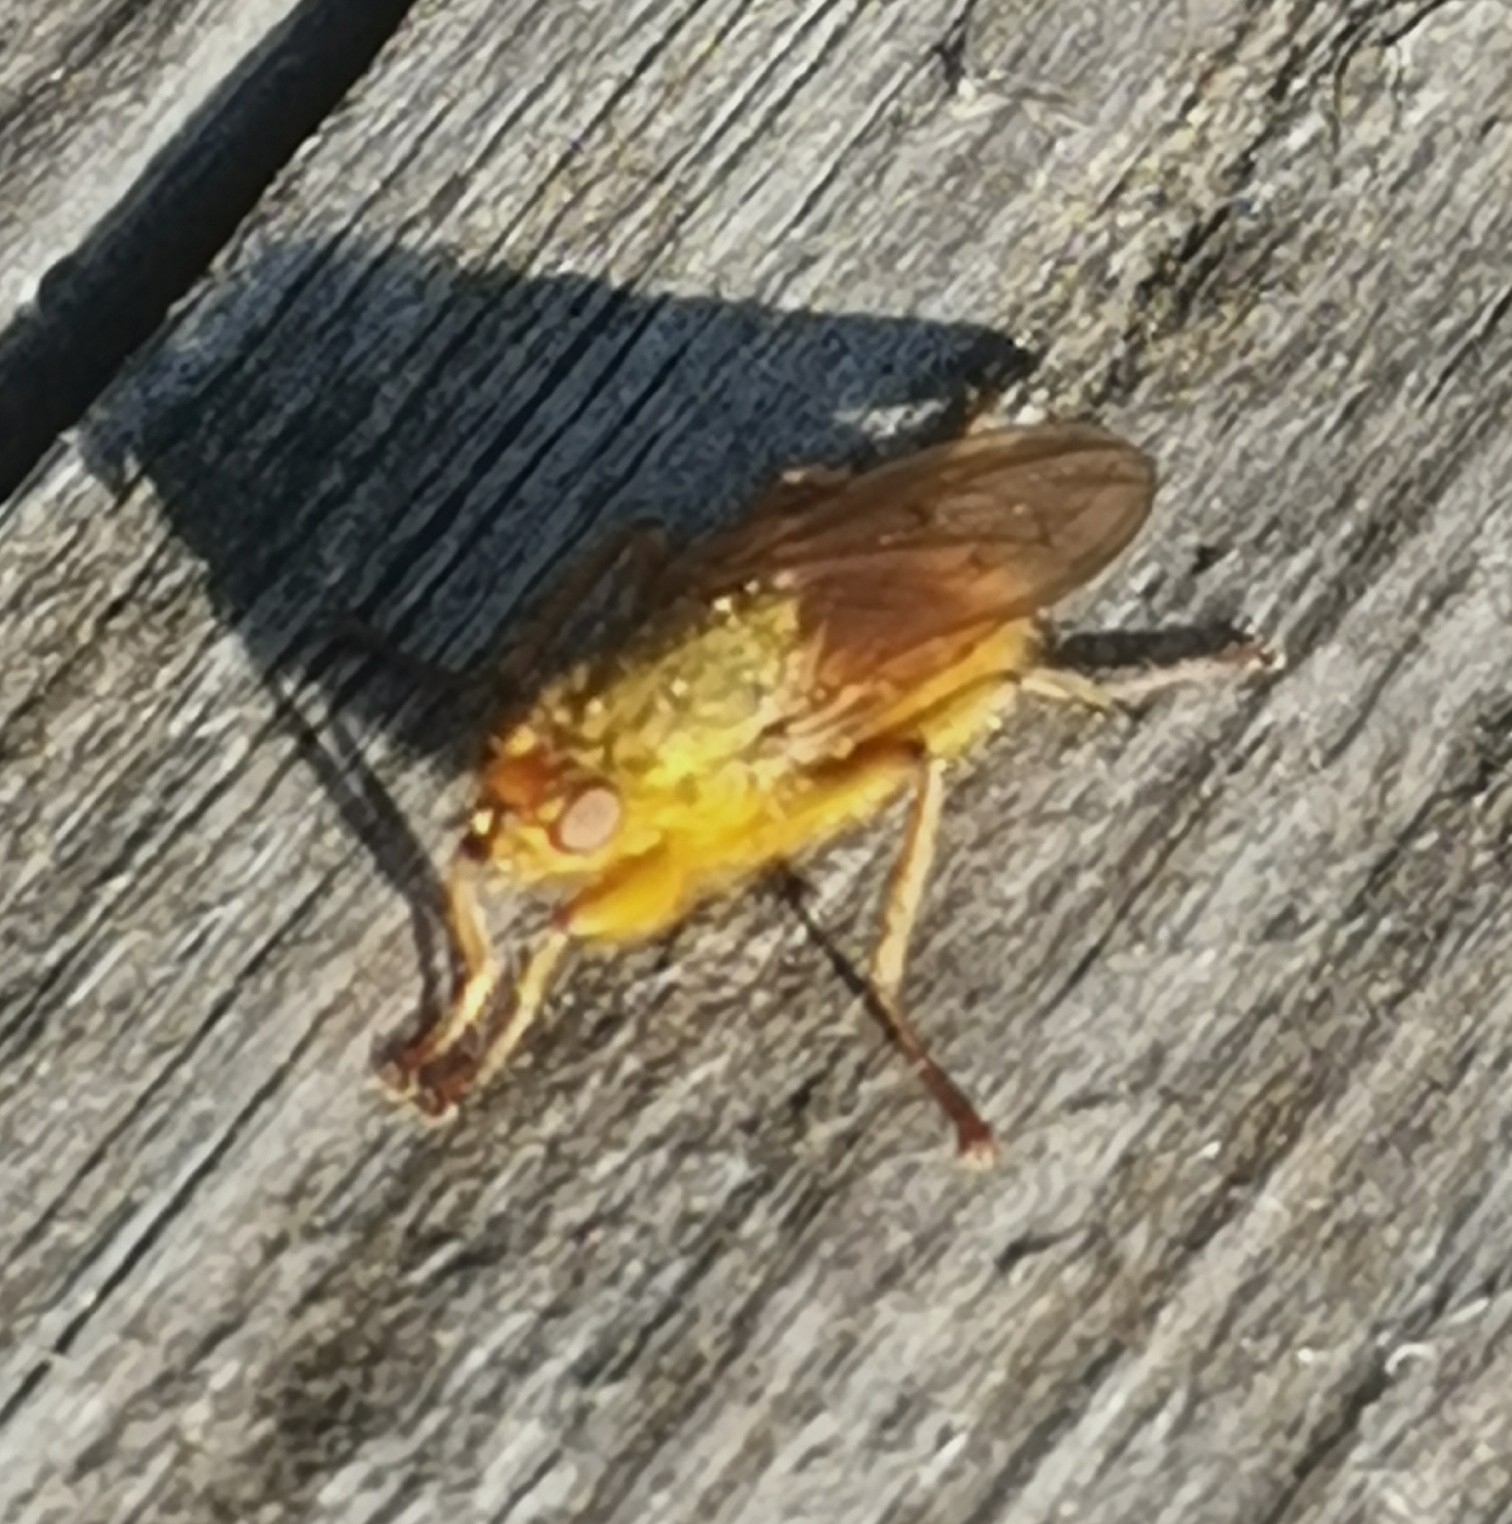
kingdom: Animalia
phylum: Arthropoda
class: Insecta
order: Diptera
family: Scathophagidae
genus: Scathophaga
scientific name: Scathophaga stercoraria
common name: Yellow dung fly
